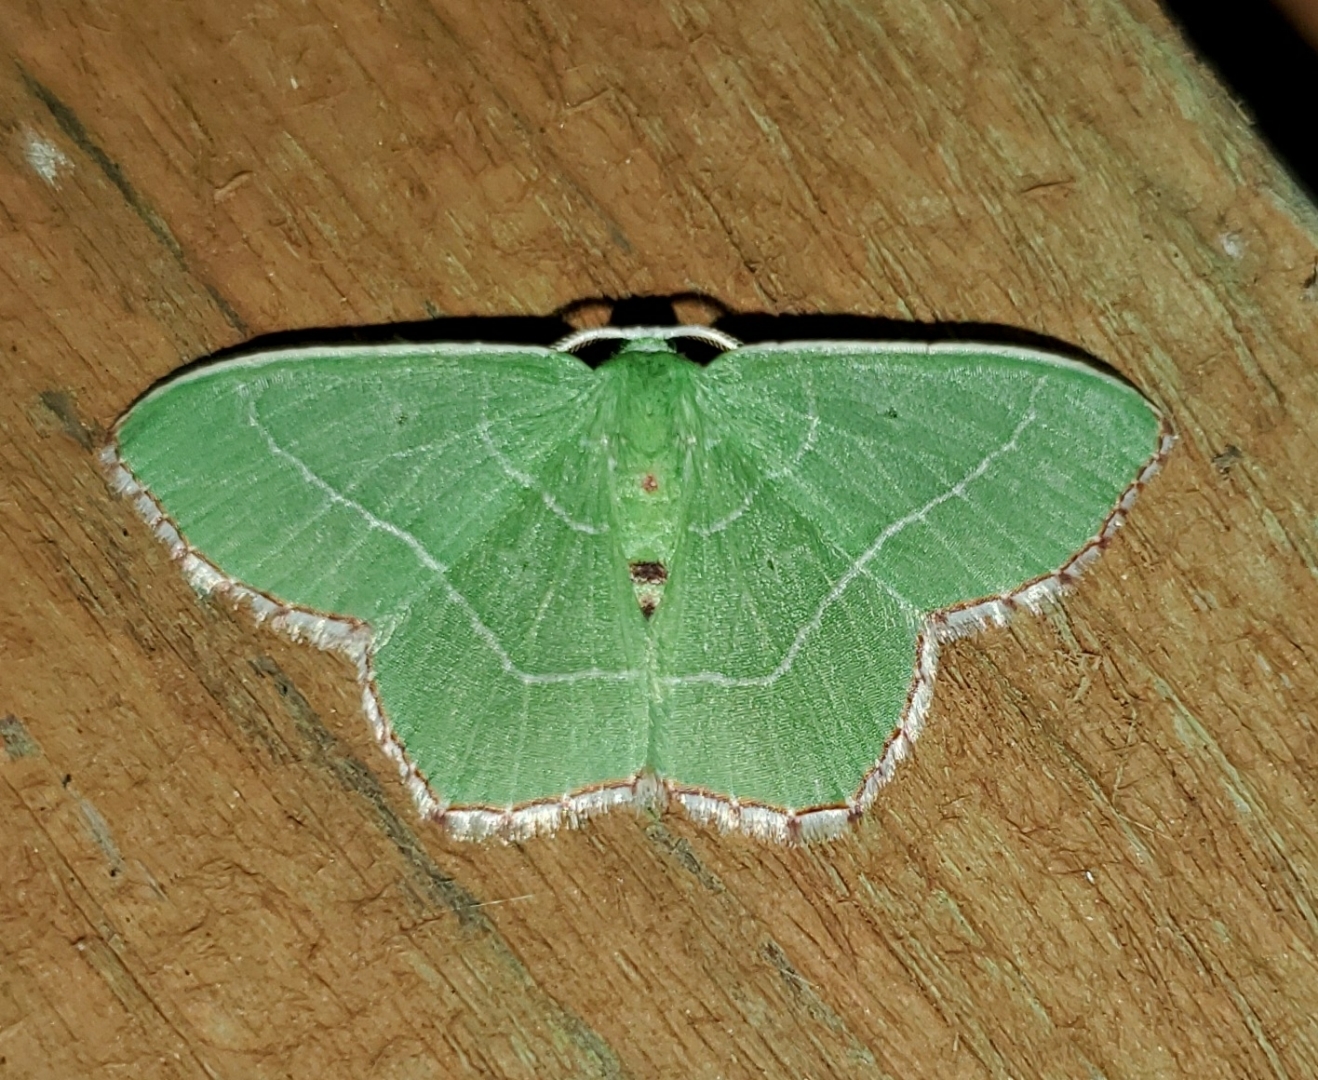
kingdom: Animalia
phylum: Arthropoda
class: Insecta
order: Lepidoptera
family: Geometridae
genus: Nemoria
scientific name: Nemoria saturiba
